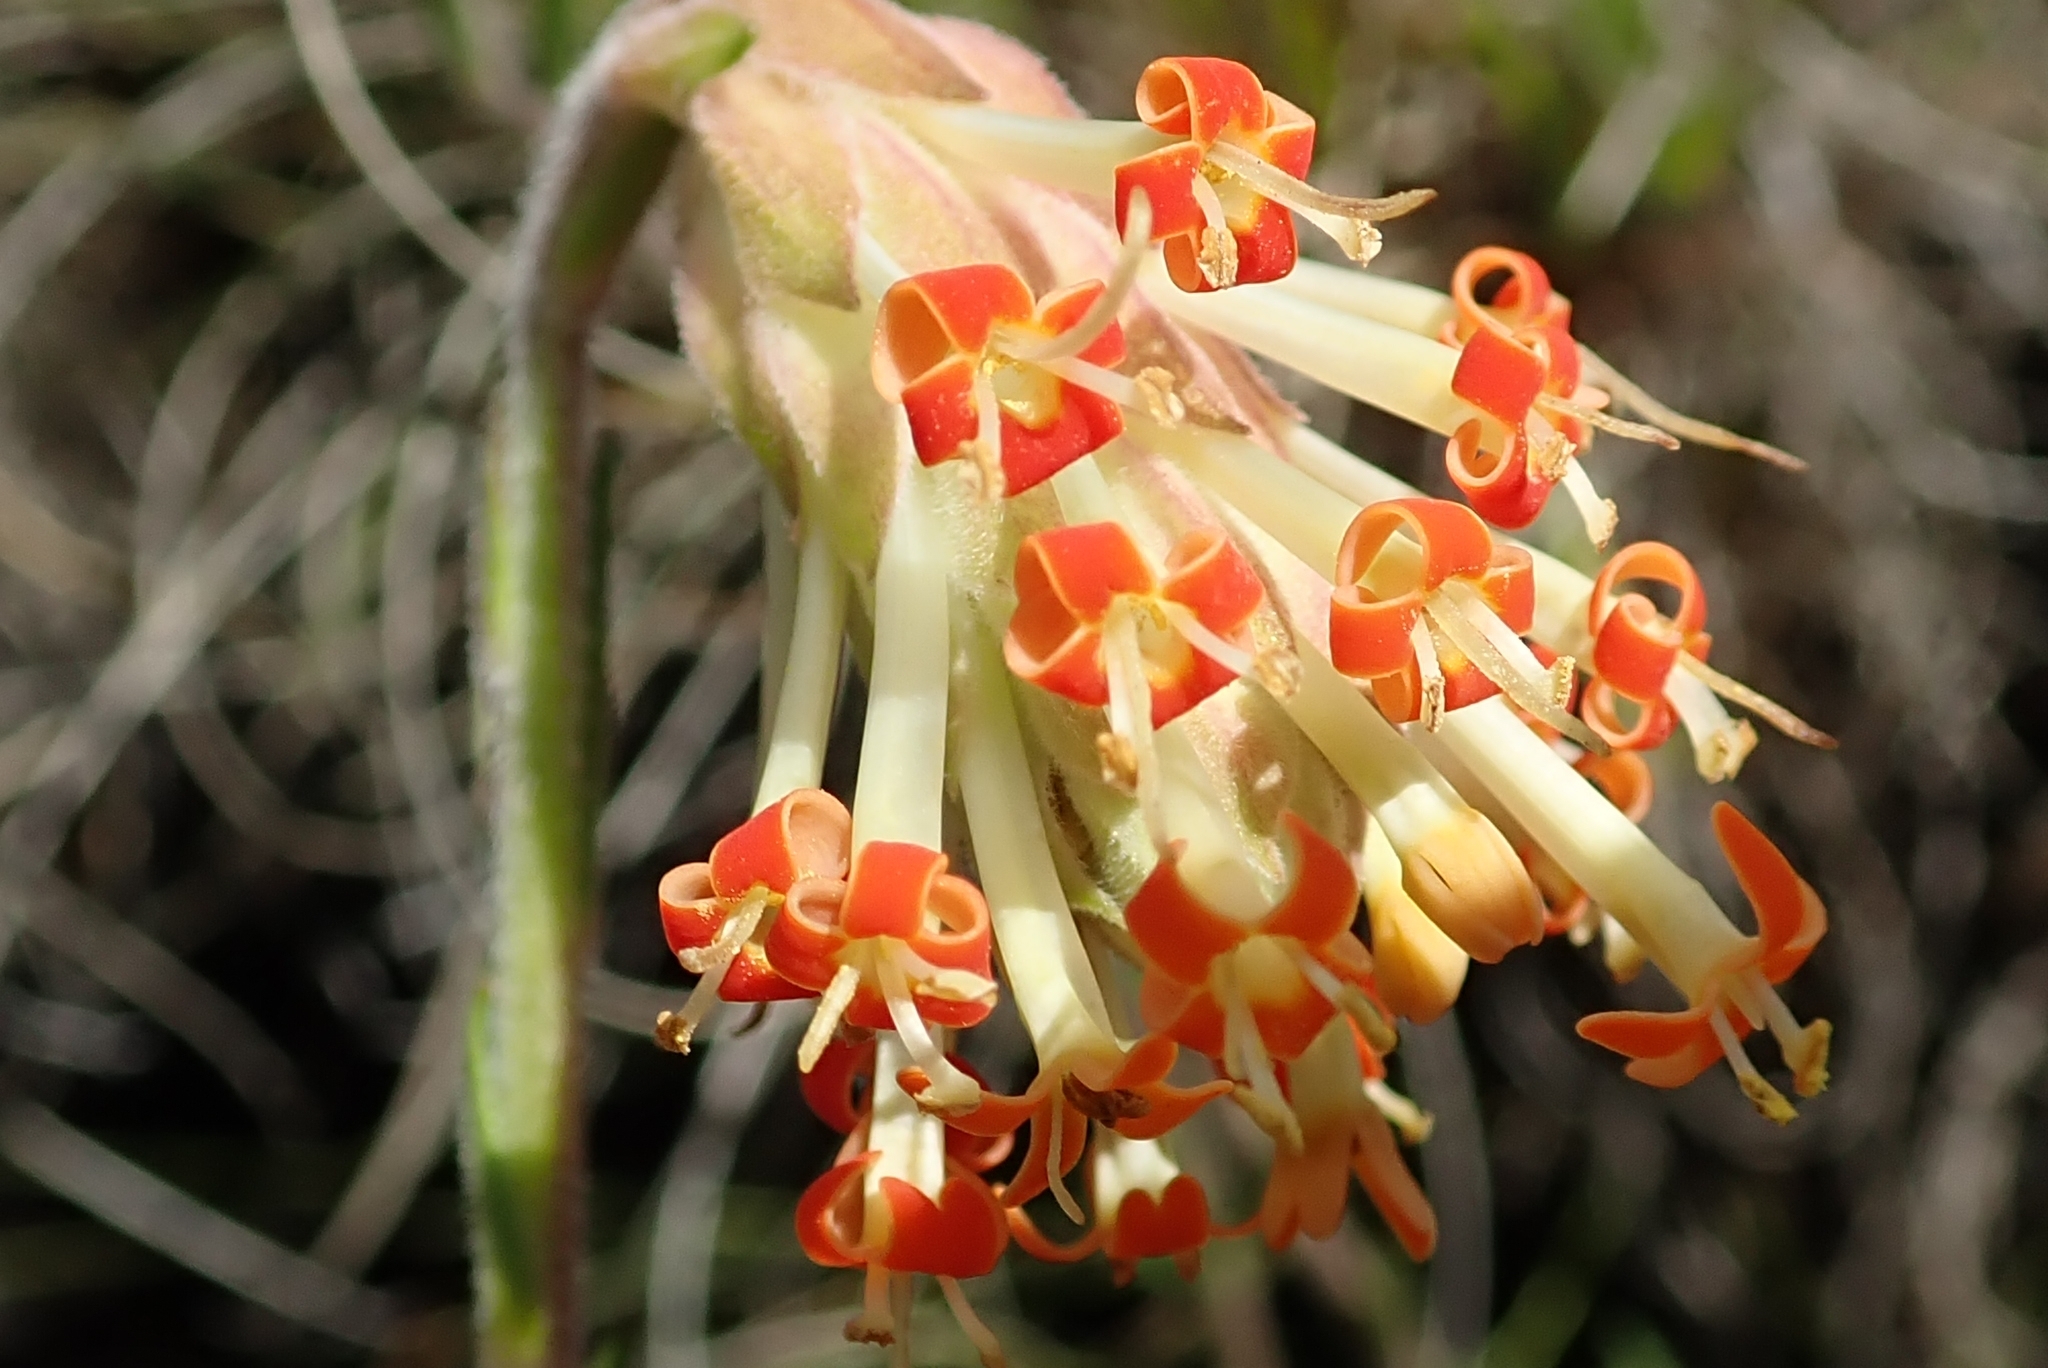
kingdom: Plantae
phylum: Tracheophyta
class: Magnoliopsida
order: Lamiales
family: Scrophulariaceae
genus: Glumicalyx
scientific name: Glumicalyx nutans
